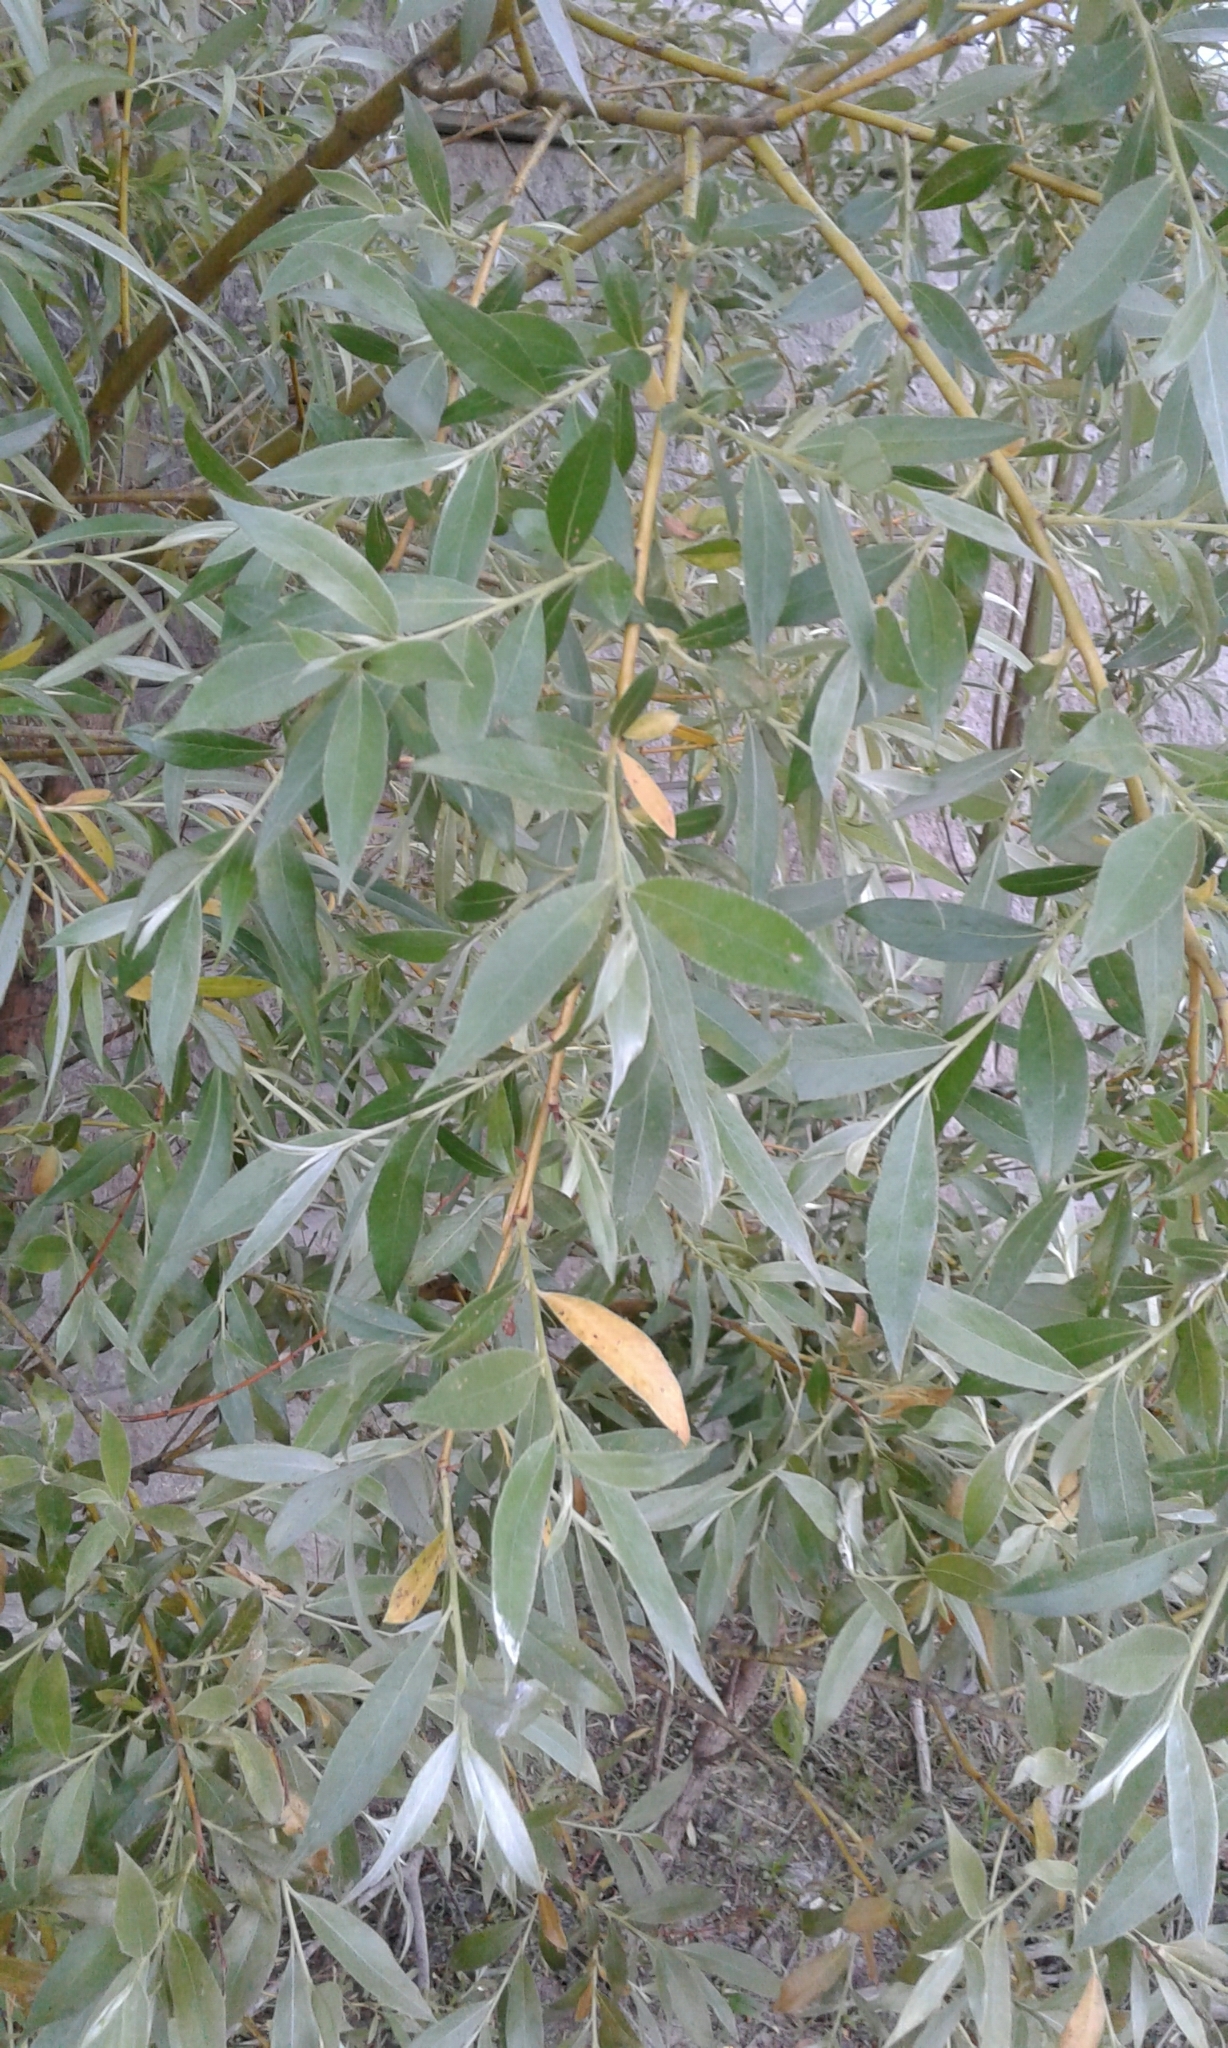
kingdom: Plantae
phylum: Tracheophyta
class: Magnoliopsida
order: Malpighiales
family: Salicaceae
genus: Salix
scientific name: Salix alba
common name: White willow
